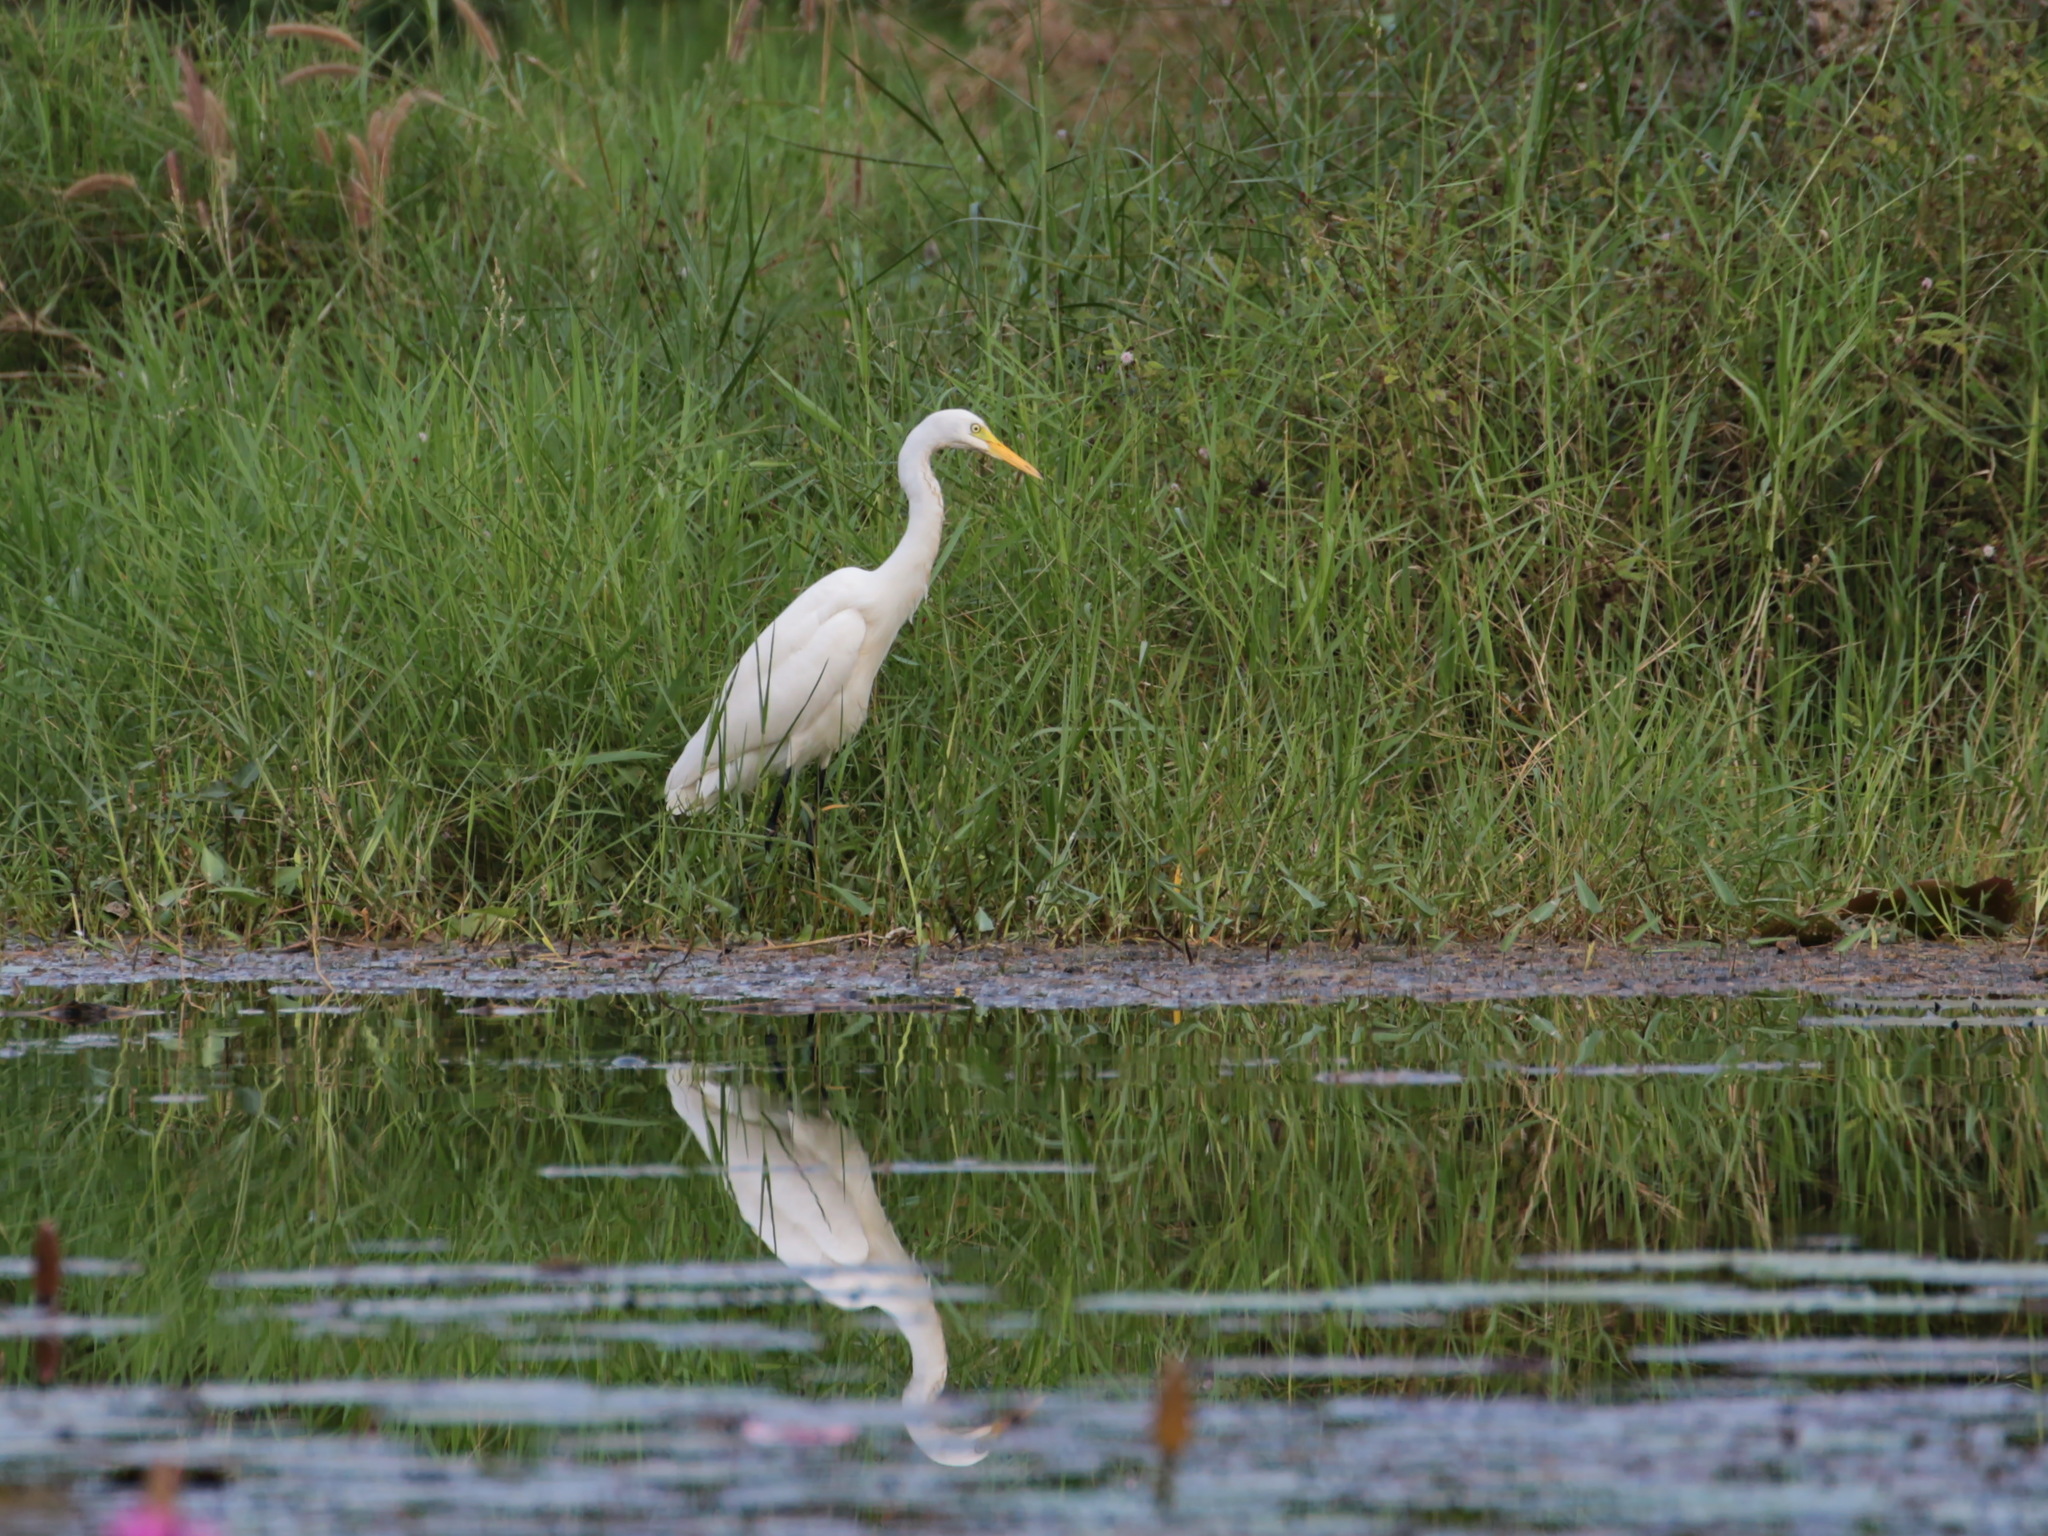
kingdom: Animalia
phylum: Chordata
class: Aves
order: Pelecaniformes
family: Ardeidae
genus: Egretta
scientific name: Egretta intermedia
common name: Intermediate egret
